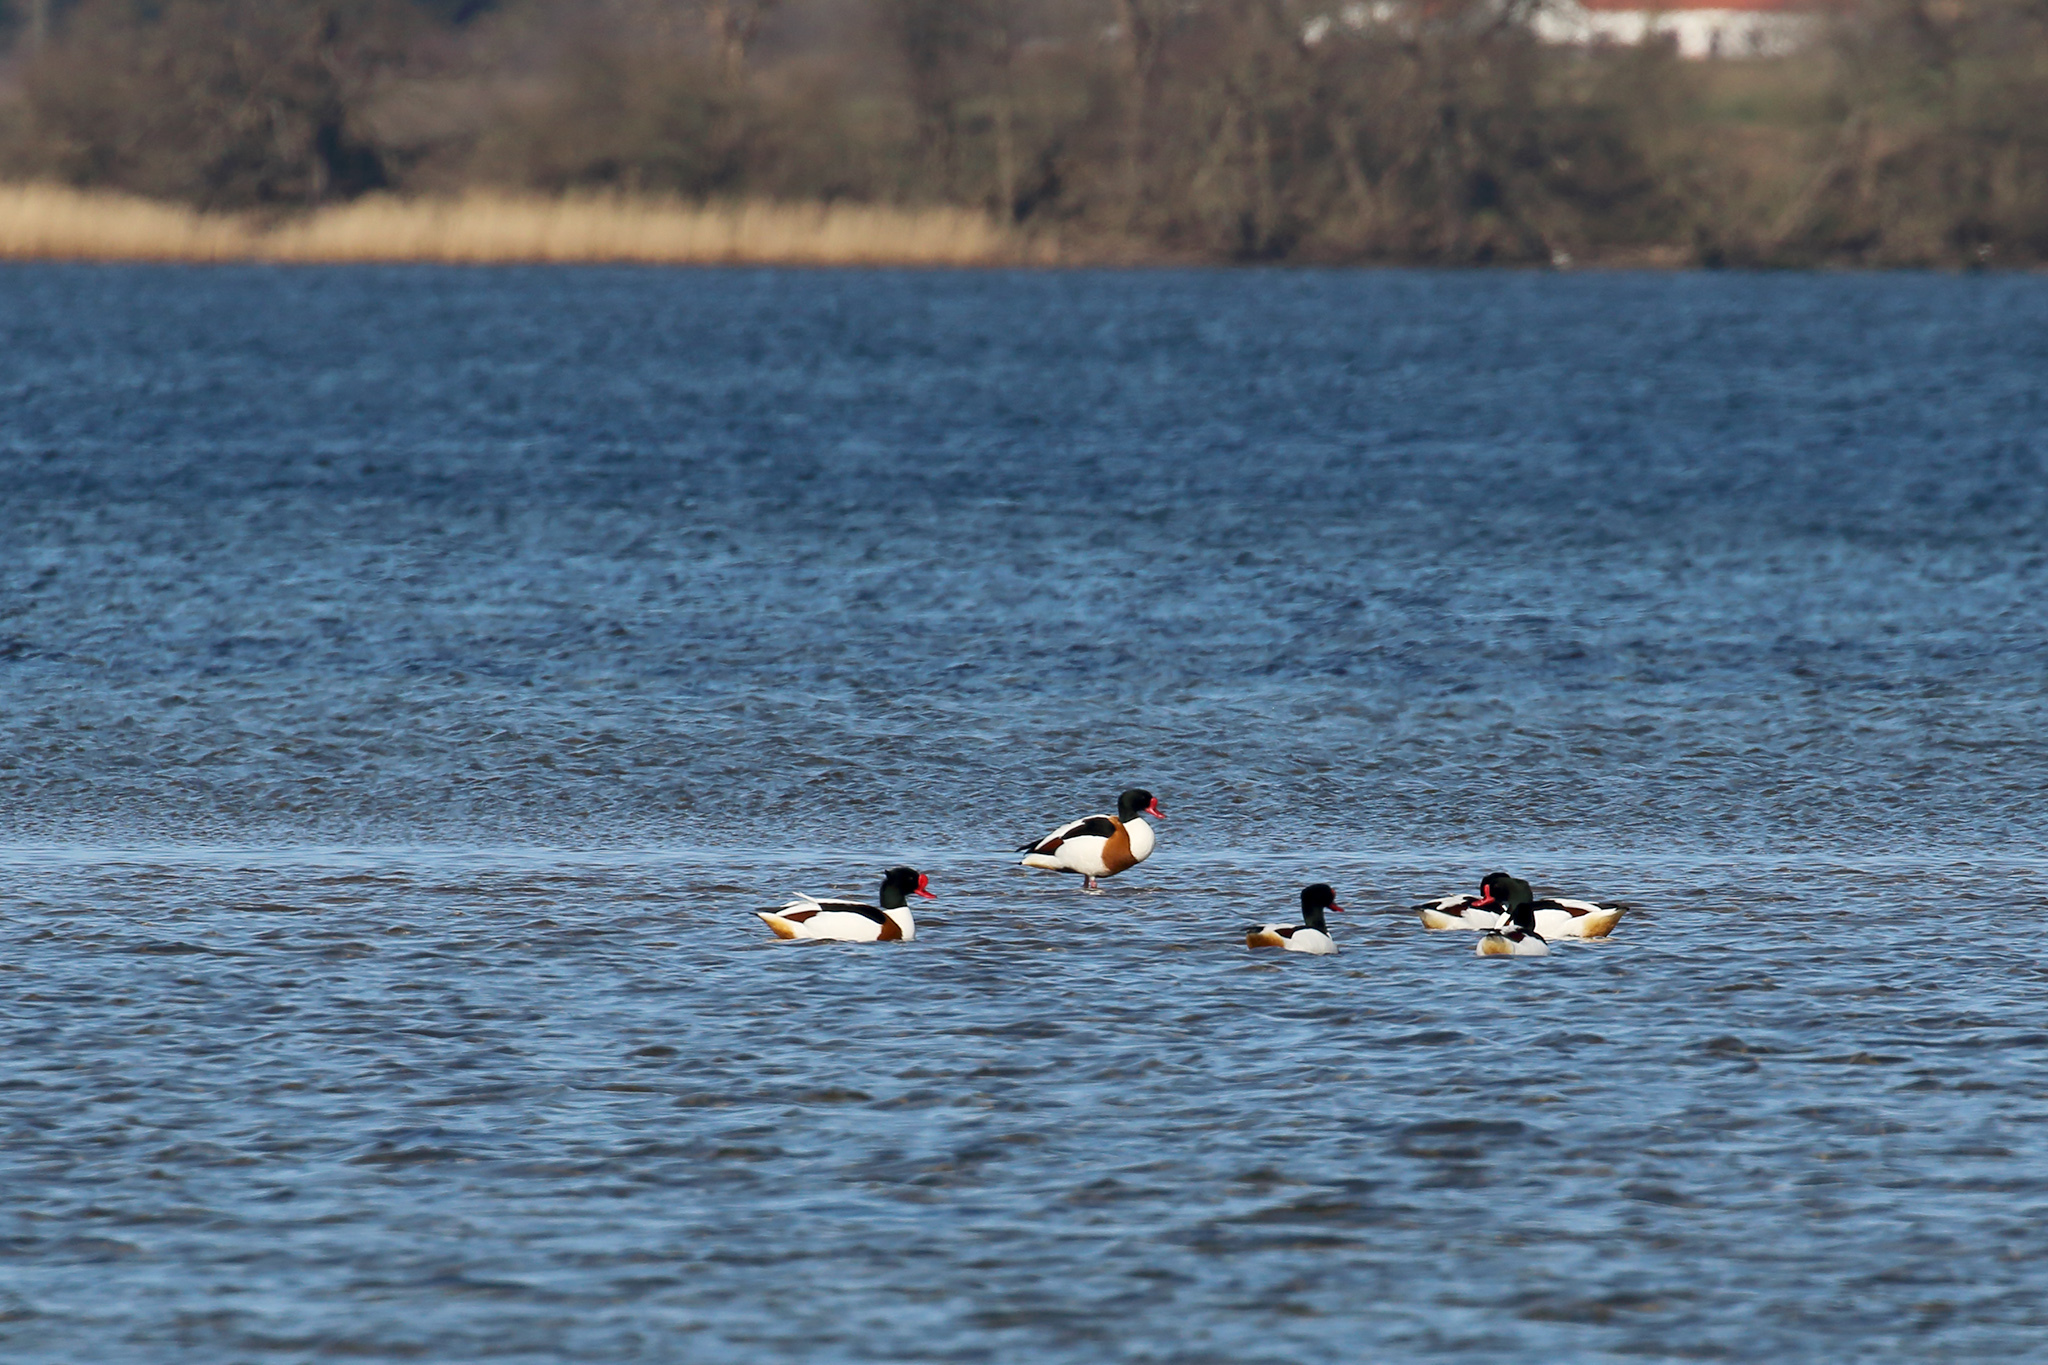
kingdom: Animalia
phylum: Chordata
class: Aves
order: Anseriformes
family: Anatidae
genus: Tadorna
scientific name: Tadorna tadorna
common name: Common shelduck
